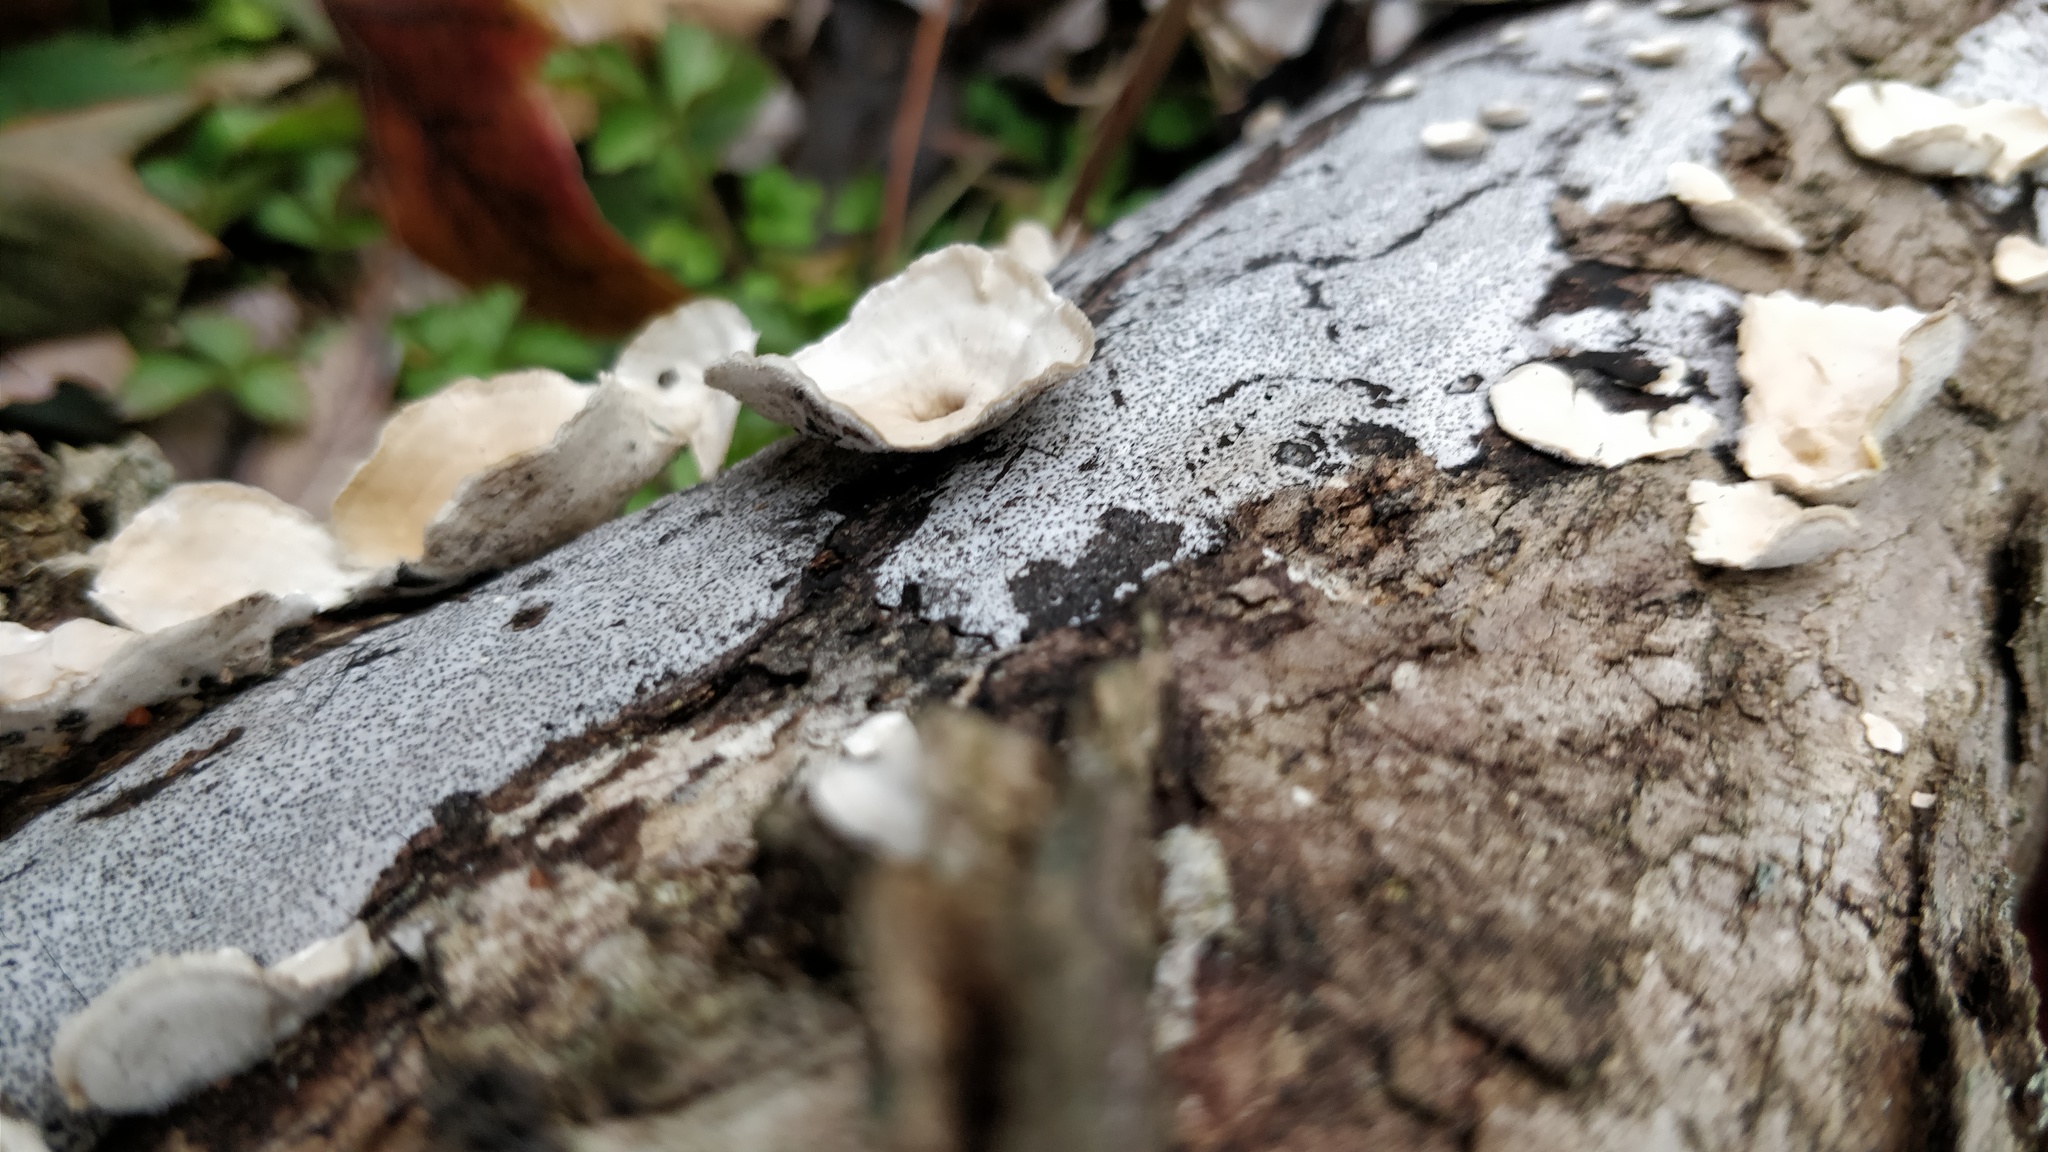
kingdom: Fungi
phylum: Basidiomycota
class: Agaricomycetes
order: Polyporales
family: Polyporaceae
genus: Poronidulus
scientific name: Poronidulus conchifer
